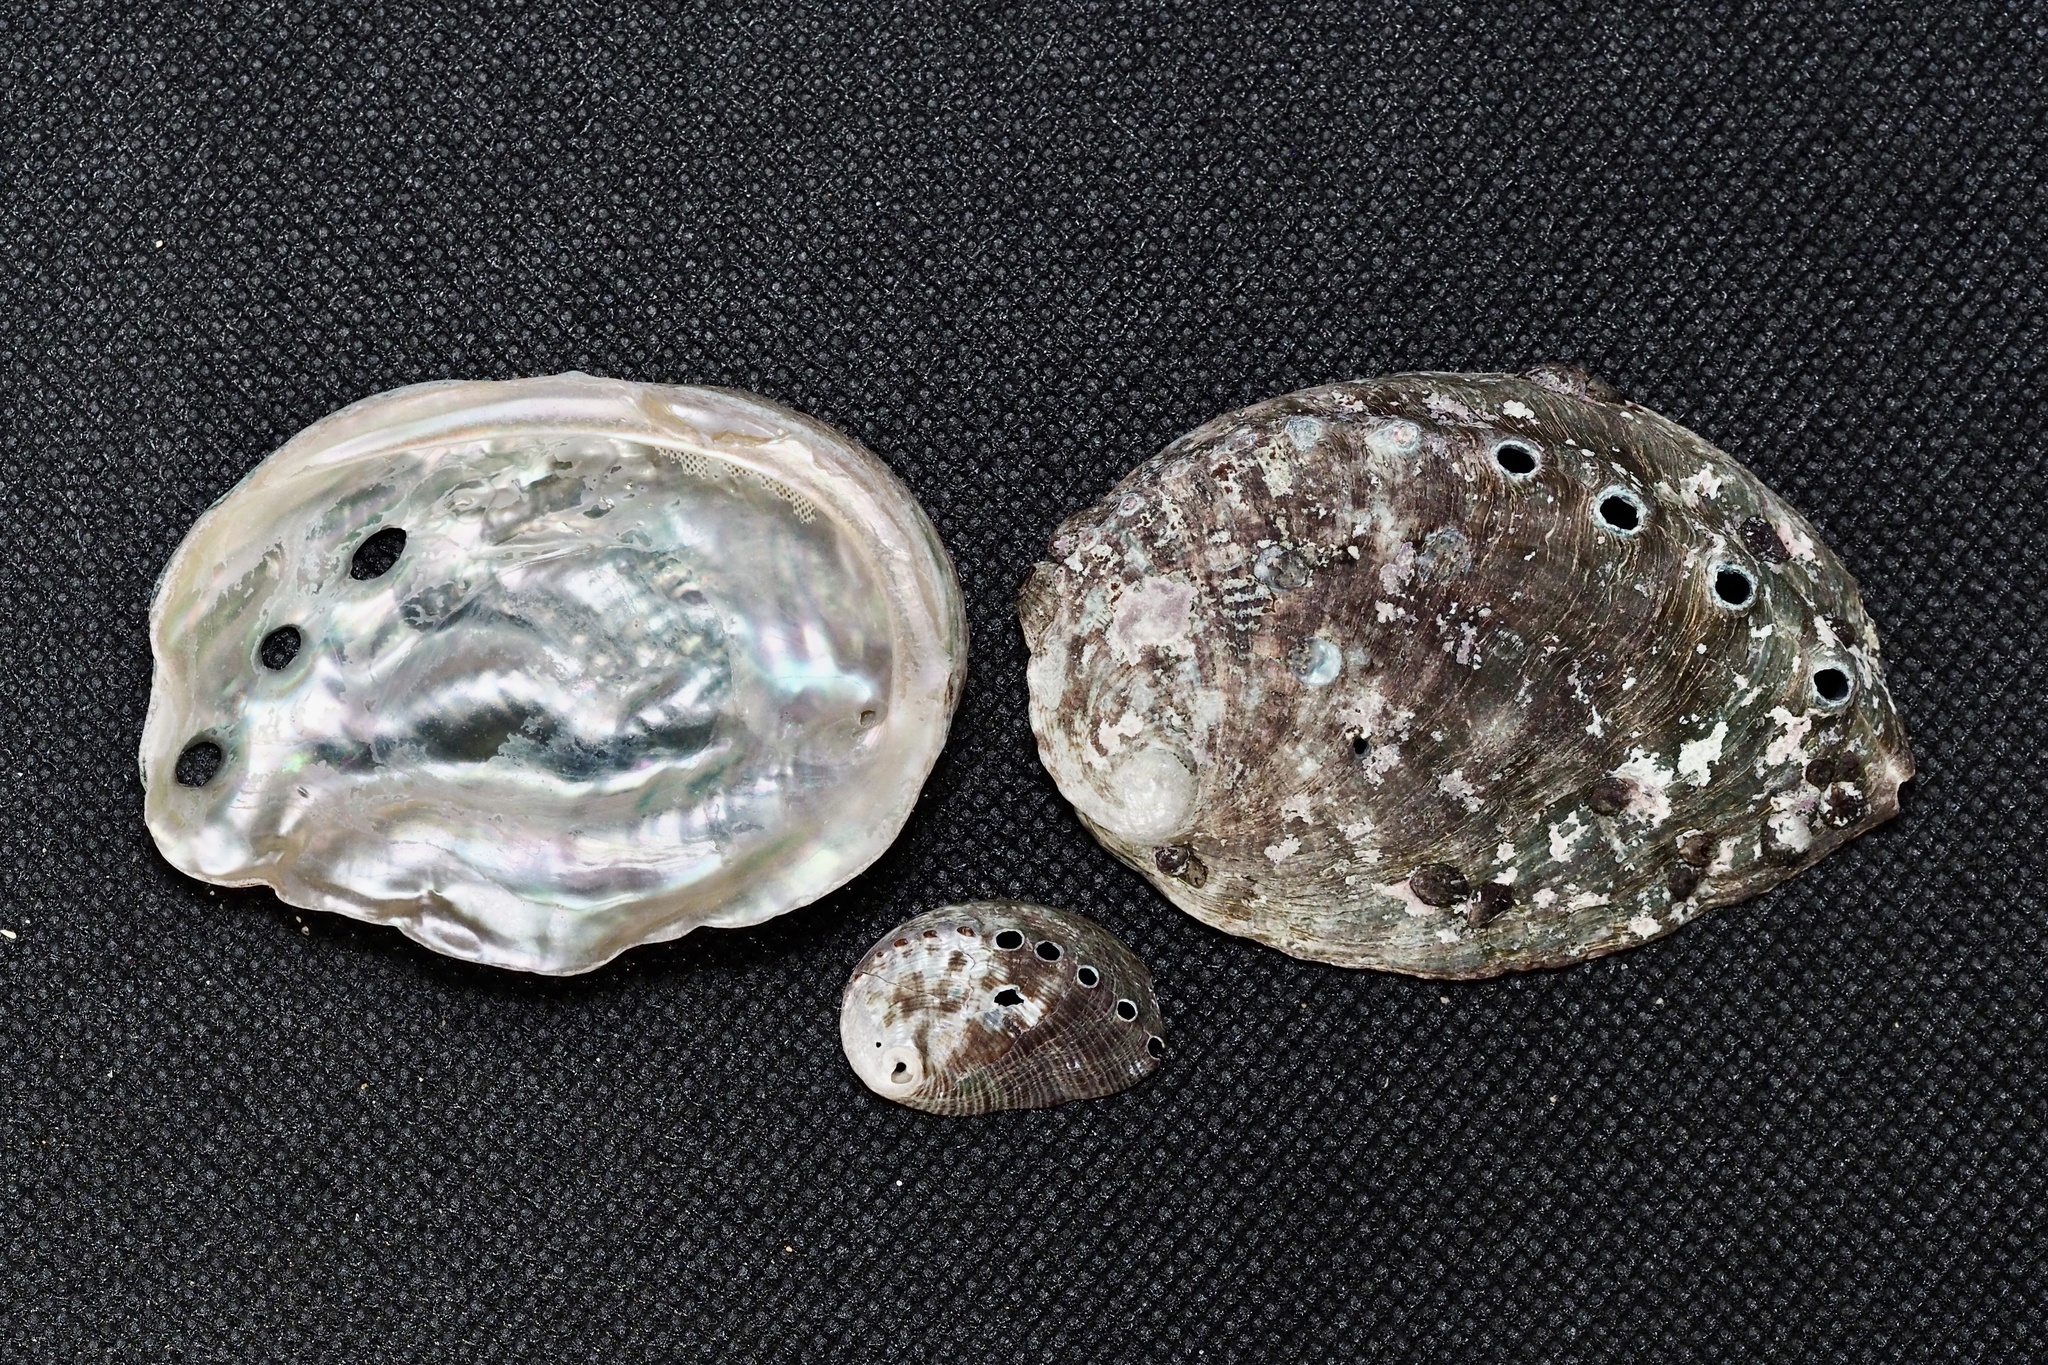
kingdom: Animalia
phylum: Mollusca
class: Gastropoda
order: Lepetellida
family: Haliotidae
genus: Haliotis
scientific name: Haliotis discus
